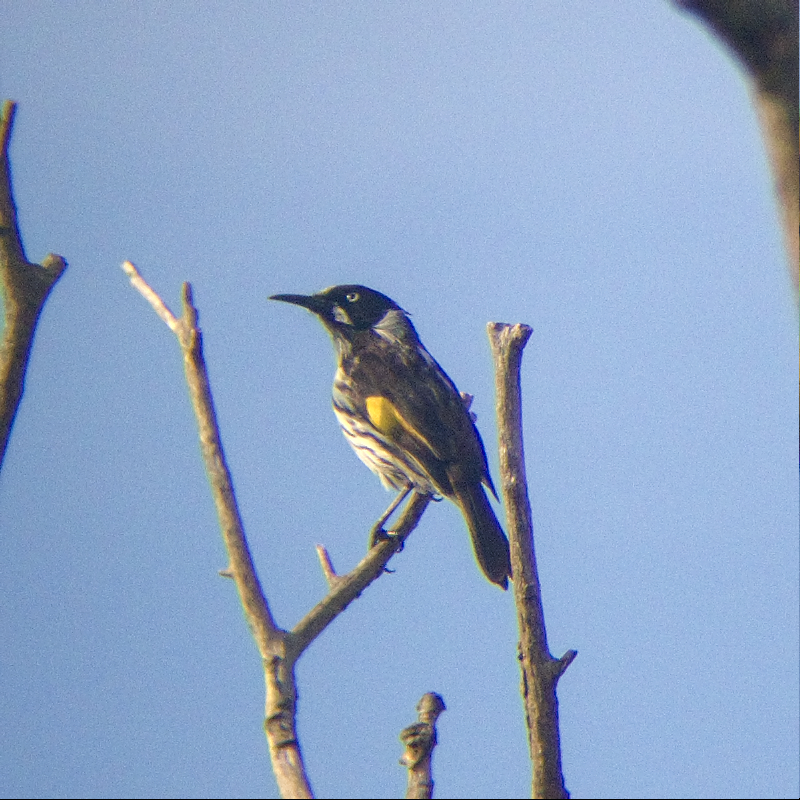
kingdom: Animalia
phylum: Chordata
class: Aves
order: Passeriformes
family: Meliphagidae
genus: Phylidonyris
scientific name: Phylidonyris novaehollandiae
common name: New holland honeyeater
